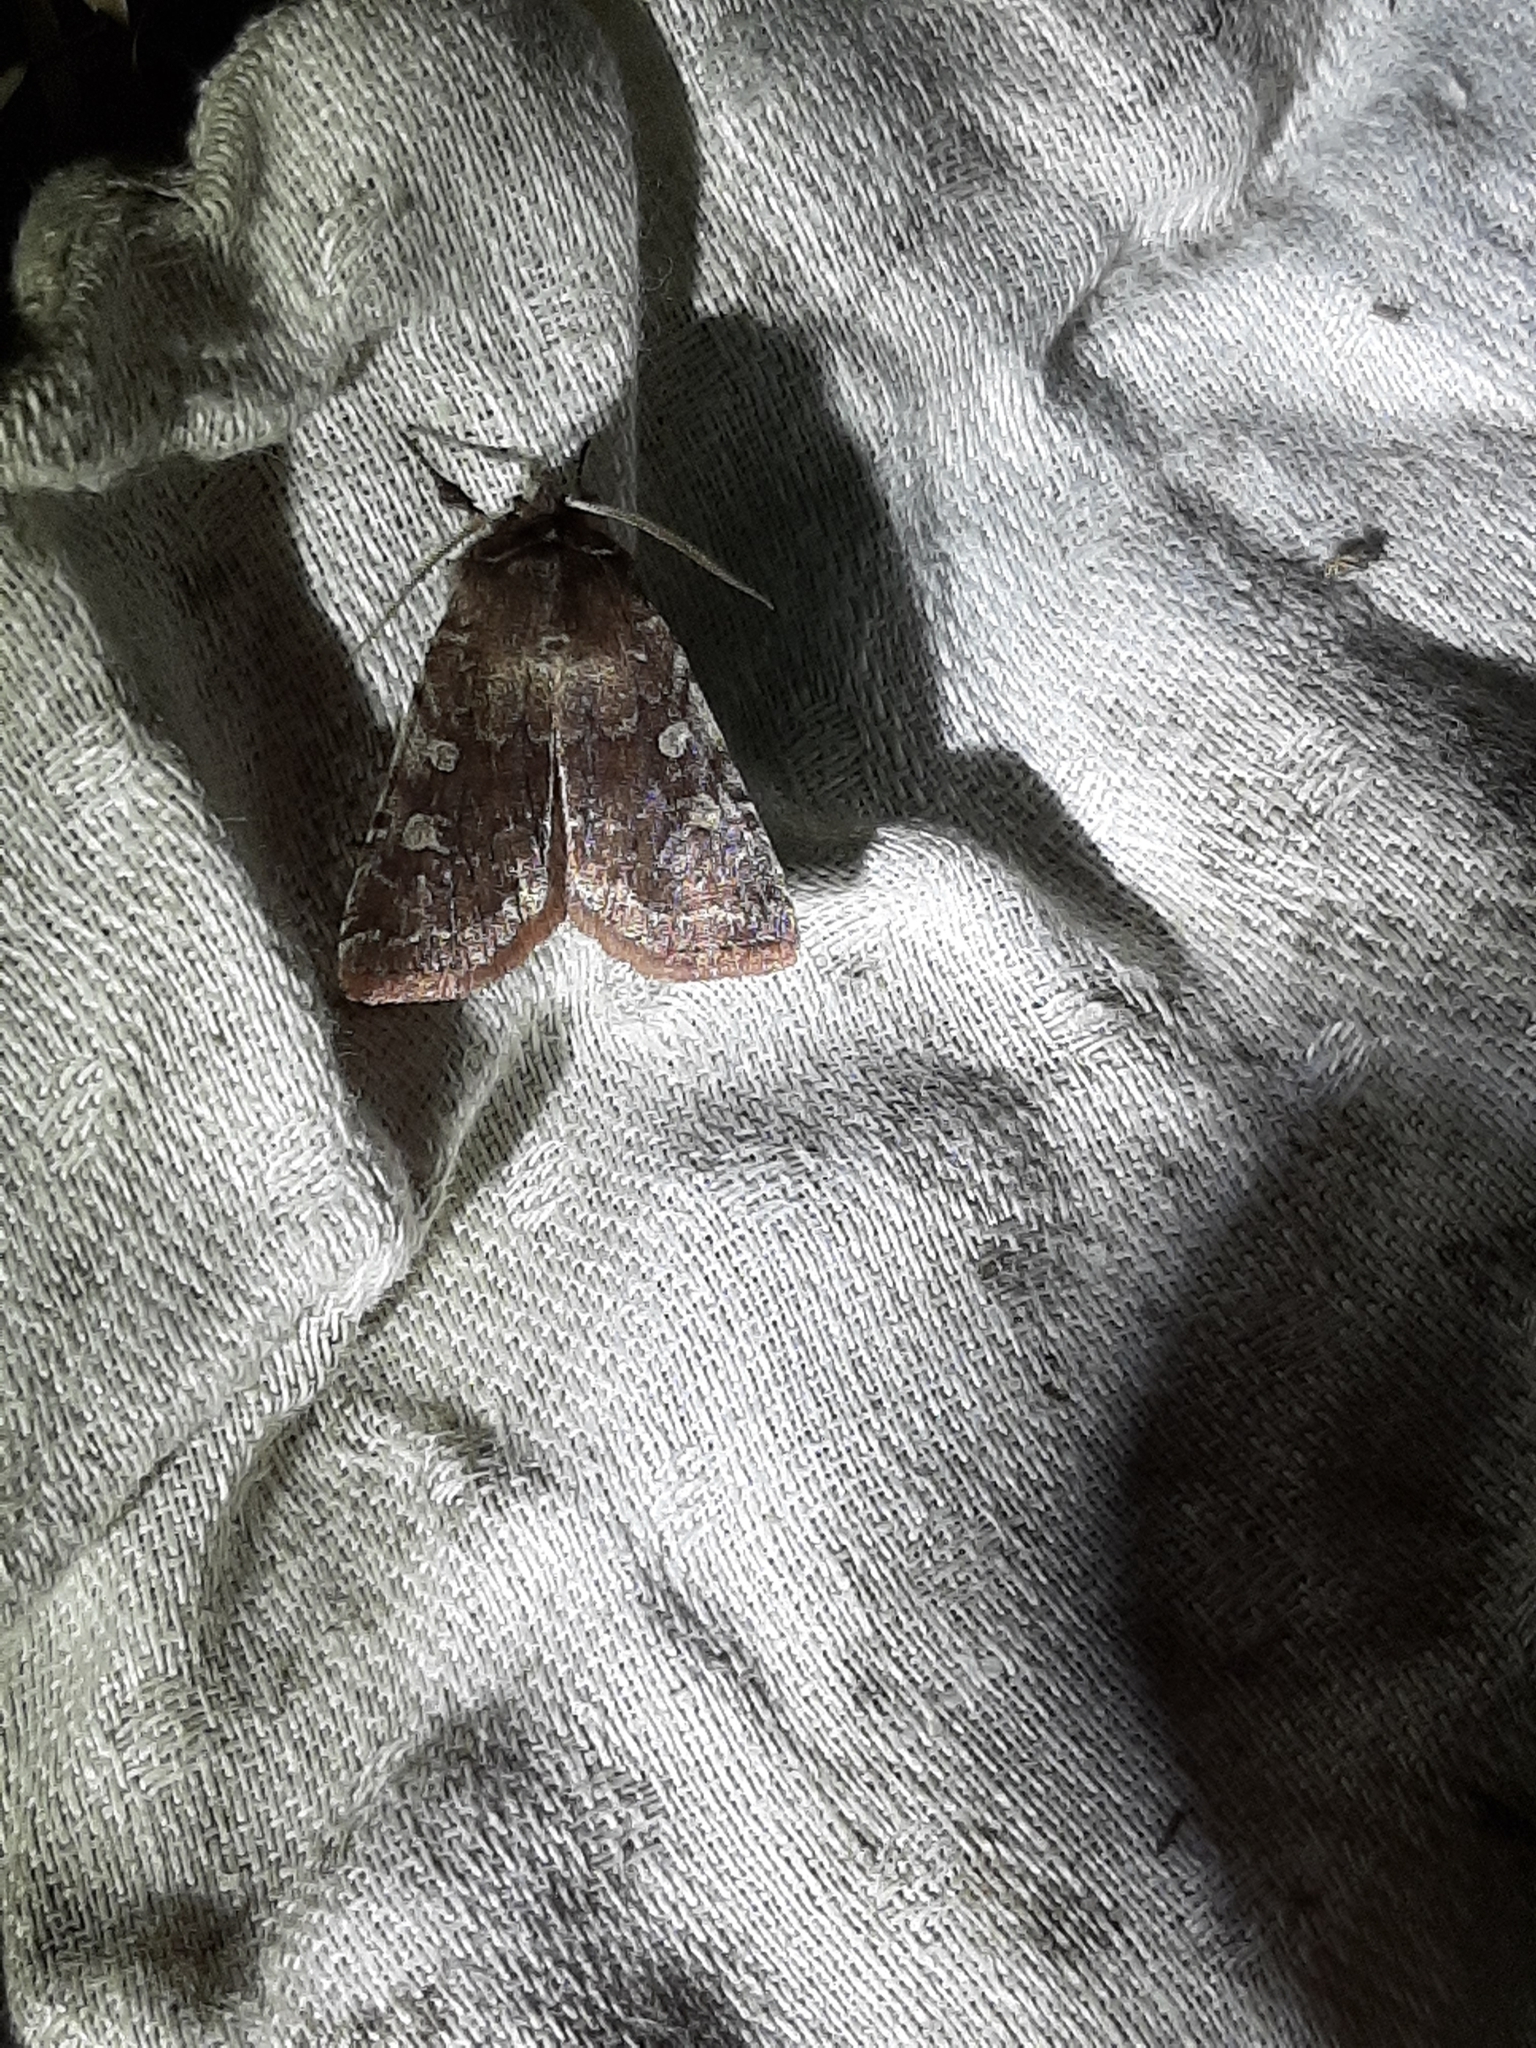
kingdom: Animalia
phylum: Arthropoda
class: Insecta
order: Lepidoptera
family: Noctuidae
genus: Cerastis
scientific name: Cerastis tenebrifera
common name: Reddish speckled dart
